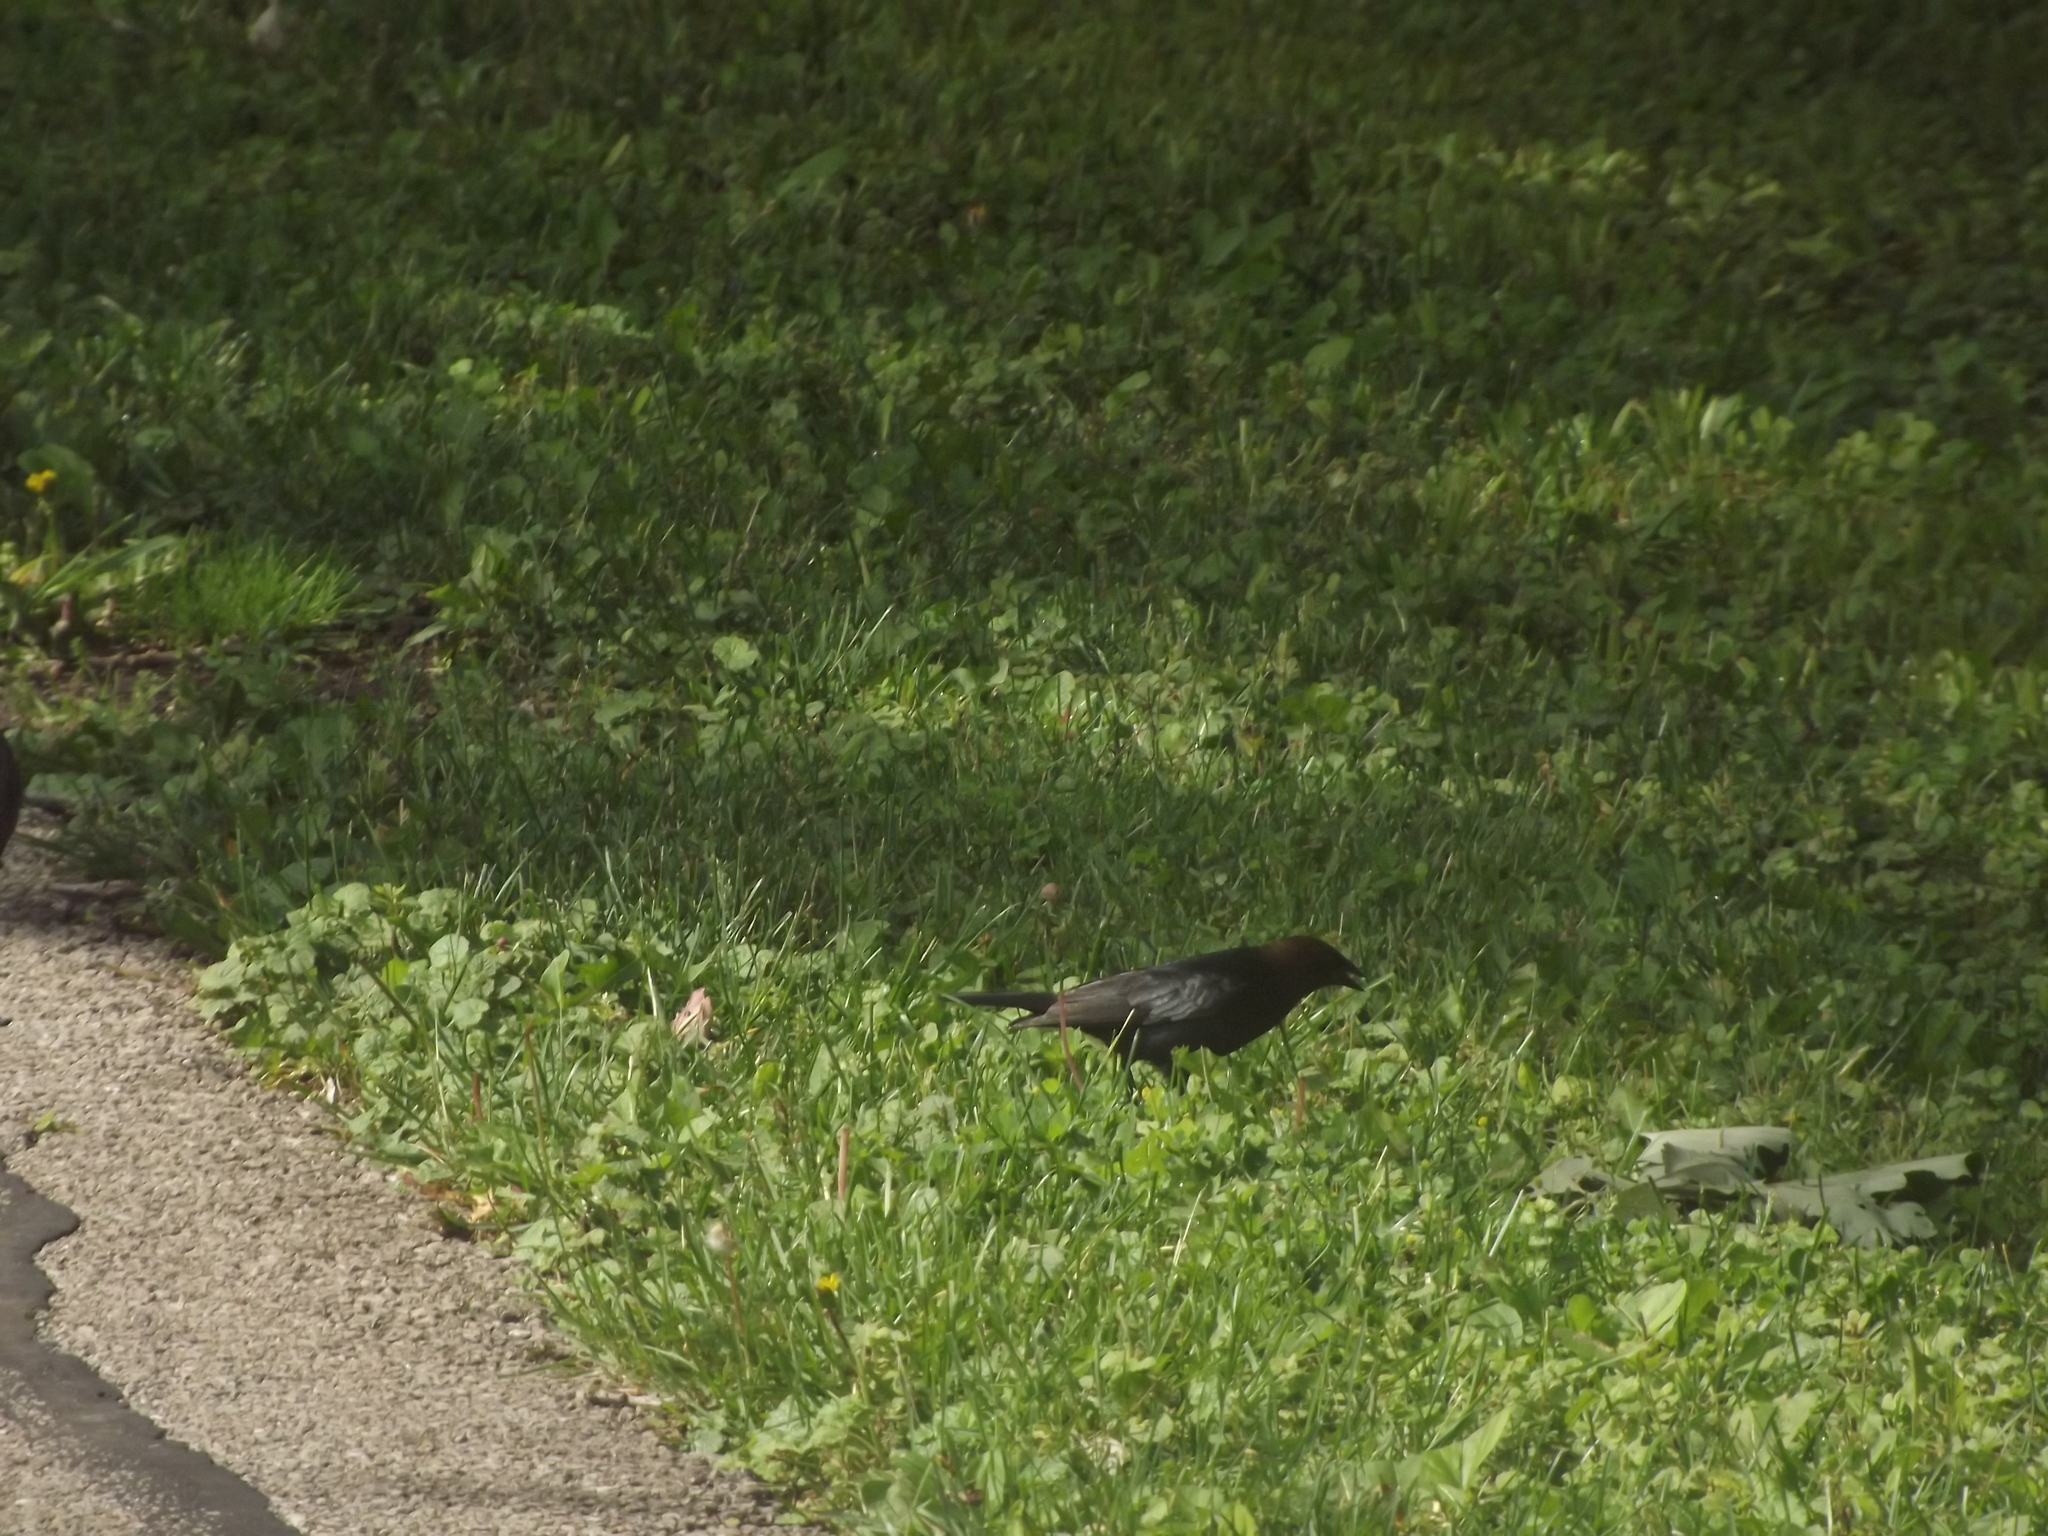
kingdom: Animalia
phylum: Chordata
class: Aves
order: Passeriformes
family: Icteridae
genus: Molothrus
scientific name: Molothrus ater
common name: Brown-headed cowbird
